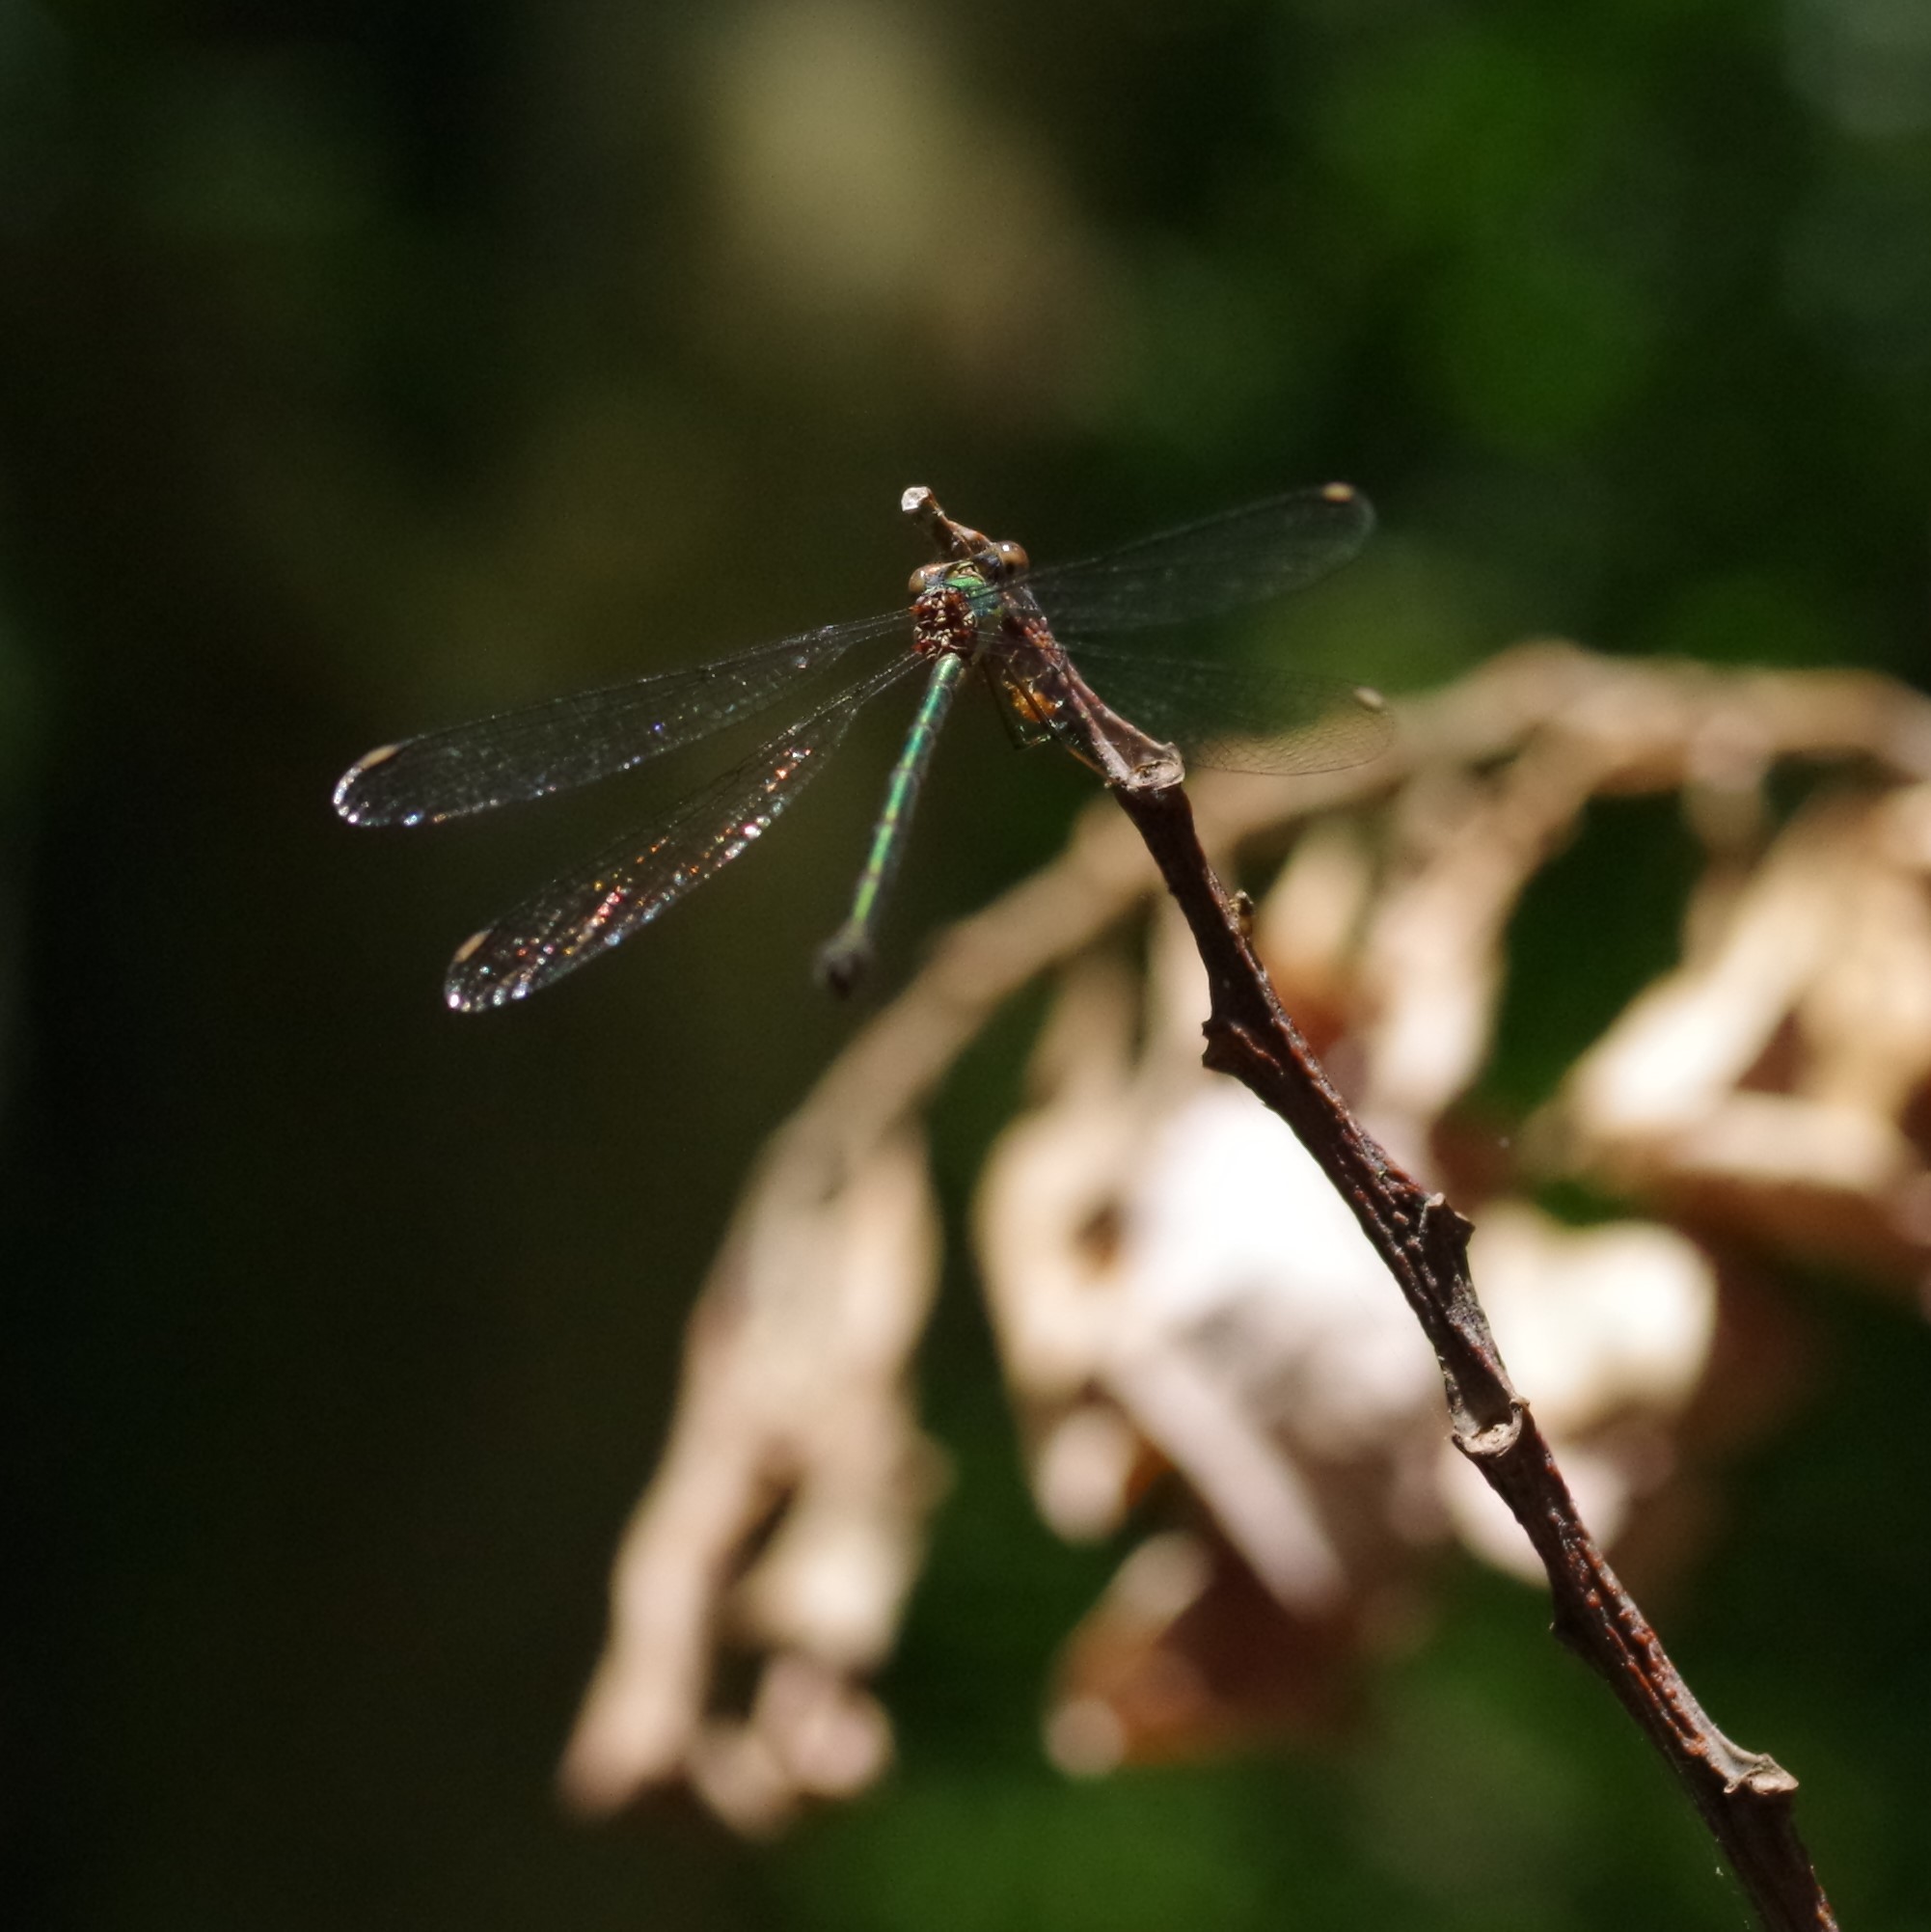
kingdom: Animalia
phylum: Arthropoda
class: Insecta
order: Odonata
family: Lestidae
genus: Chalcolestes
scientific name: Chalcolestes viridis
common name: Green emerald damselfly
